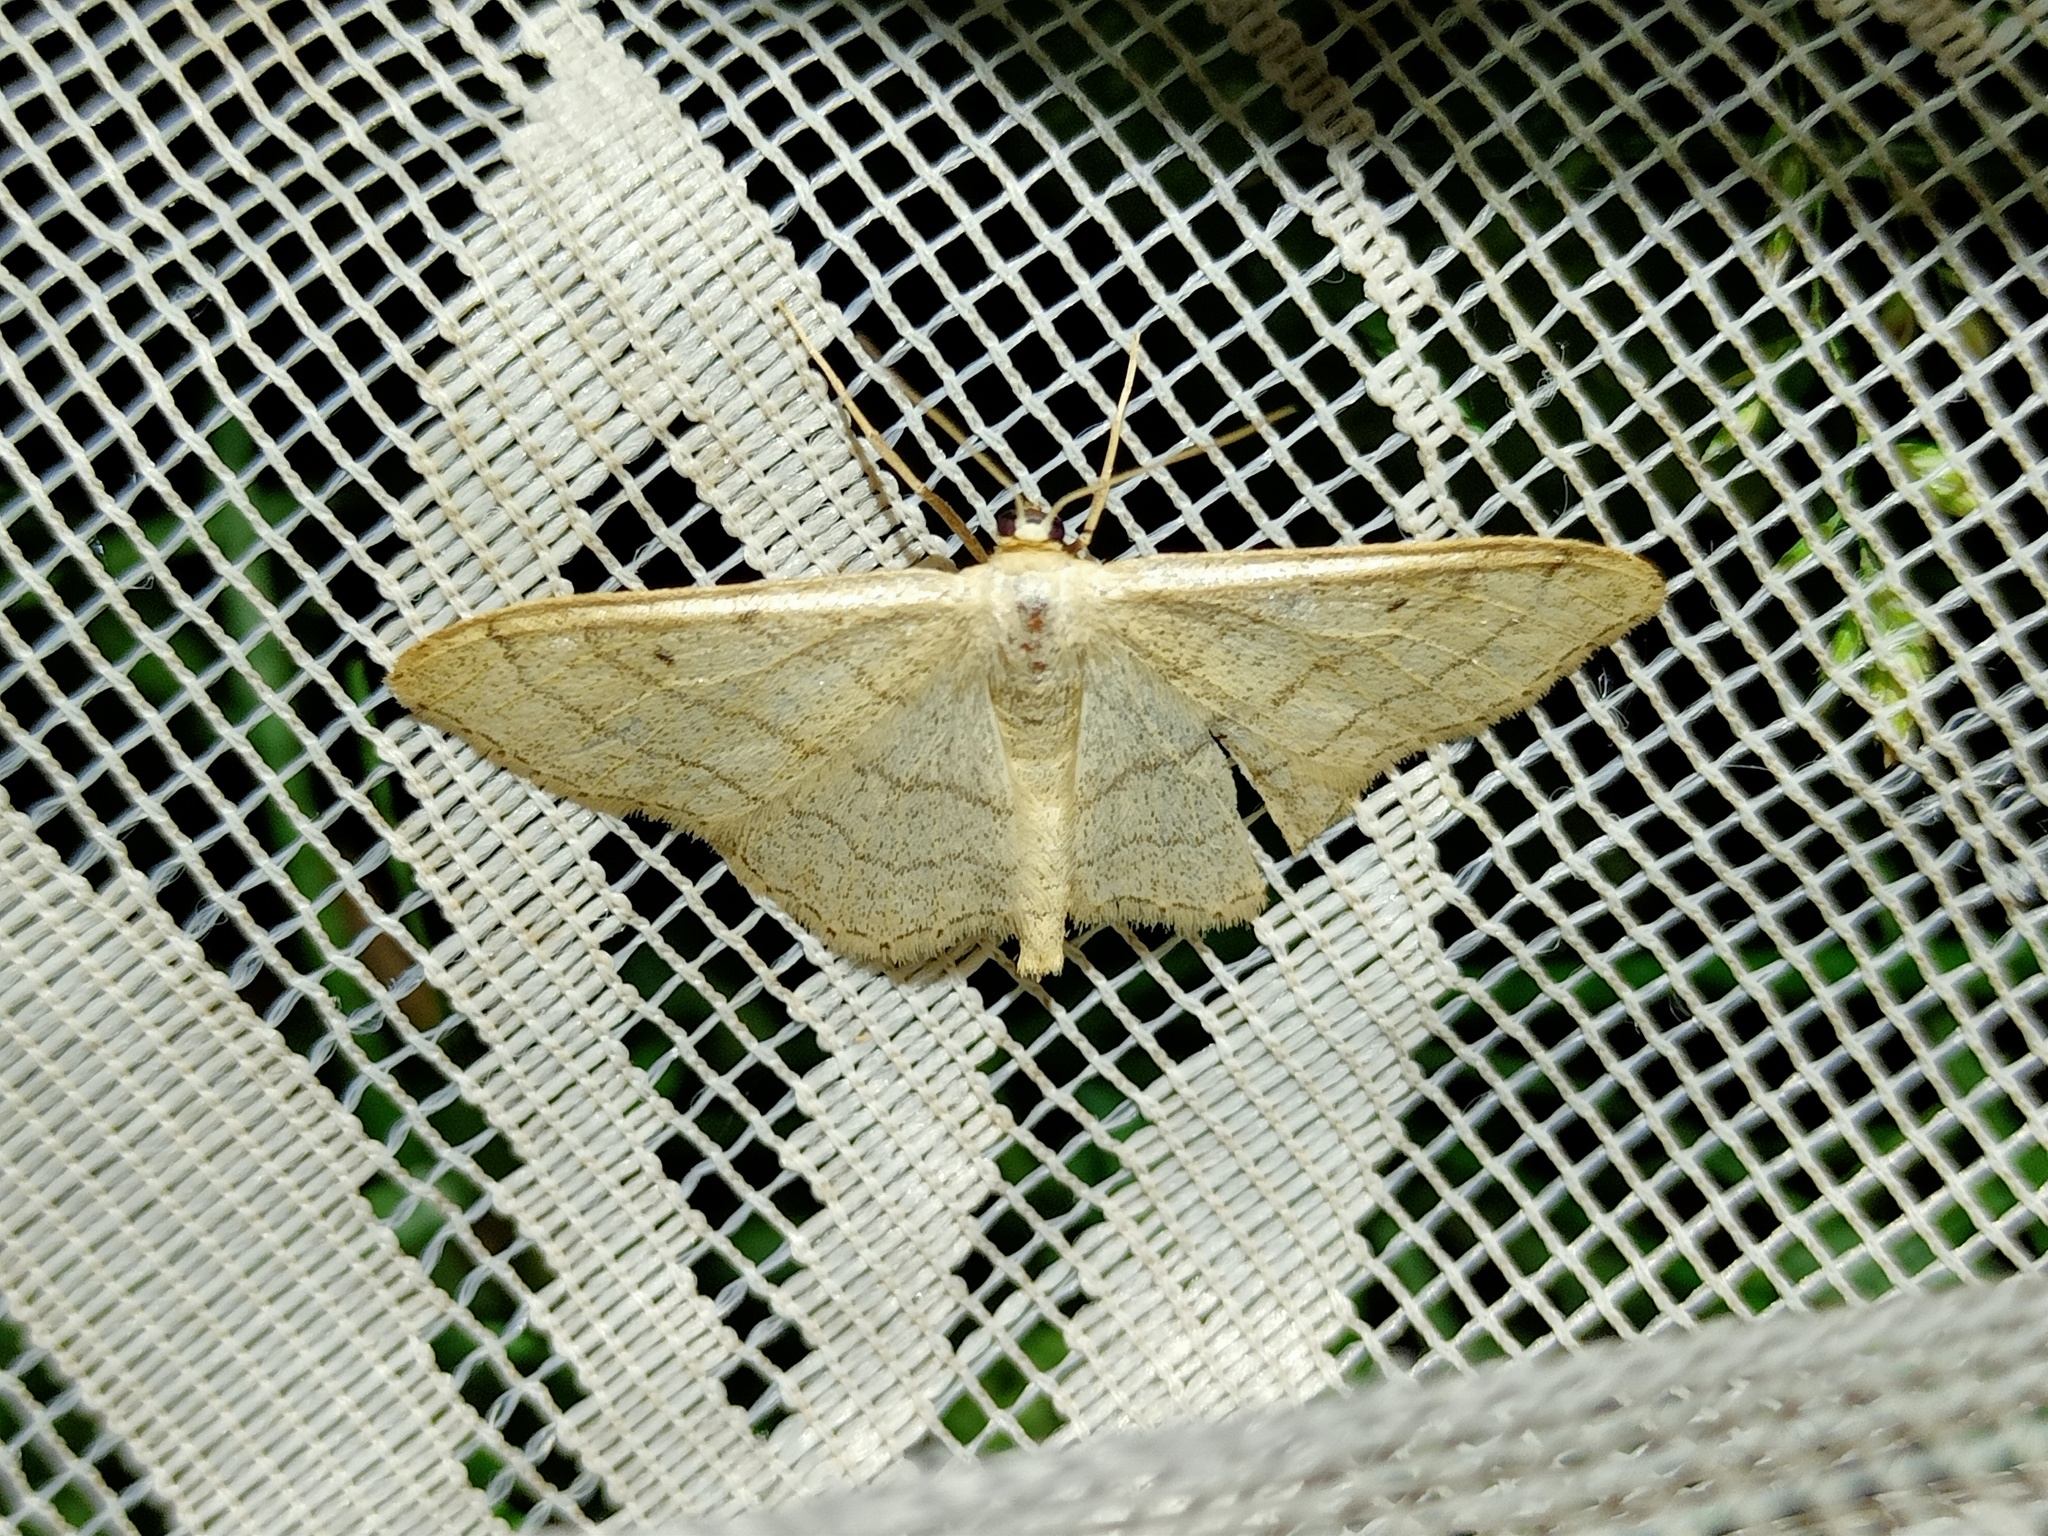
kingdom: Animalia
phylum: Arthropoda
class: Insecta
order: Lepidoptera
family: Geometridae
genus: Idaea
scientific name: Idaea aversata
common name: Riband wave
